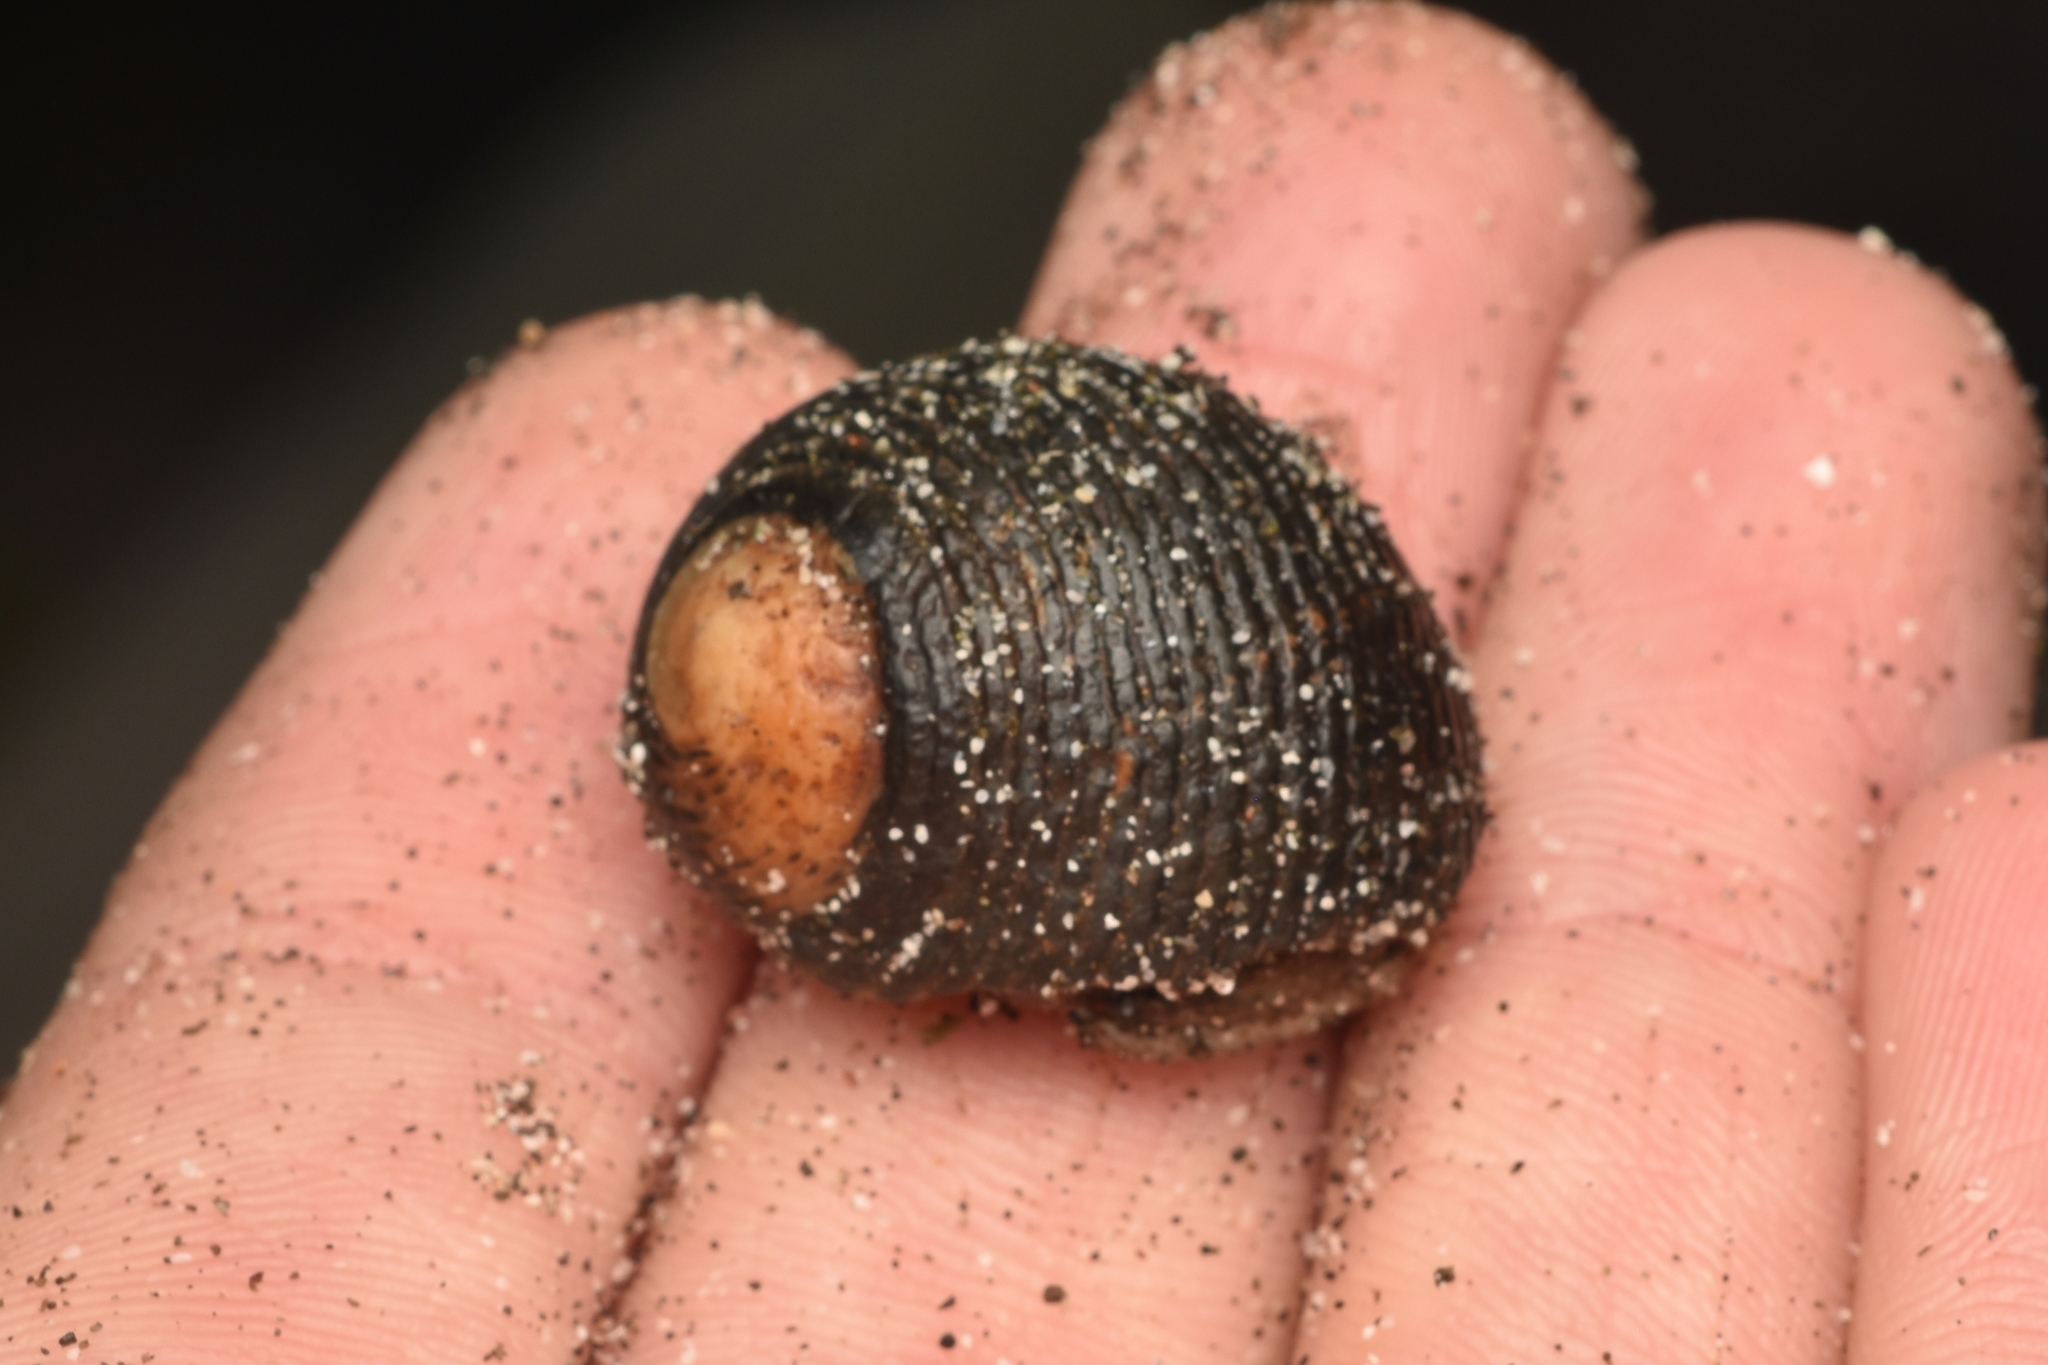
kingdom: Animalia
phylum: Mollusca
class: Gastropoda
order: Cycloneritida
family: Neritidae
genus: Nerita
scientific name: Nerita scabricosta
